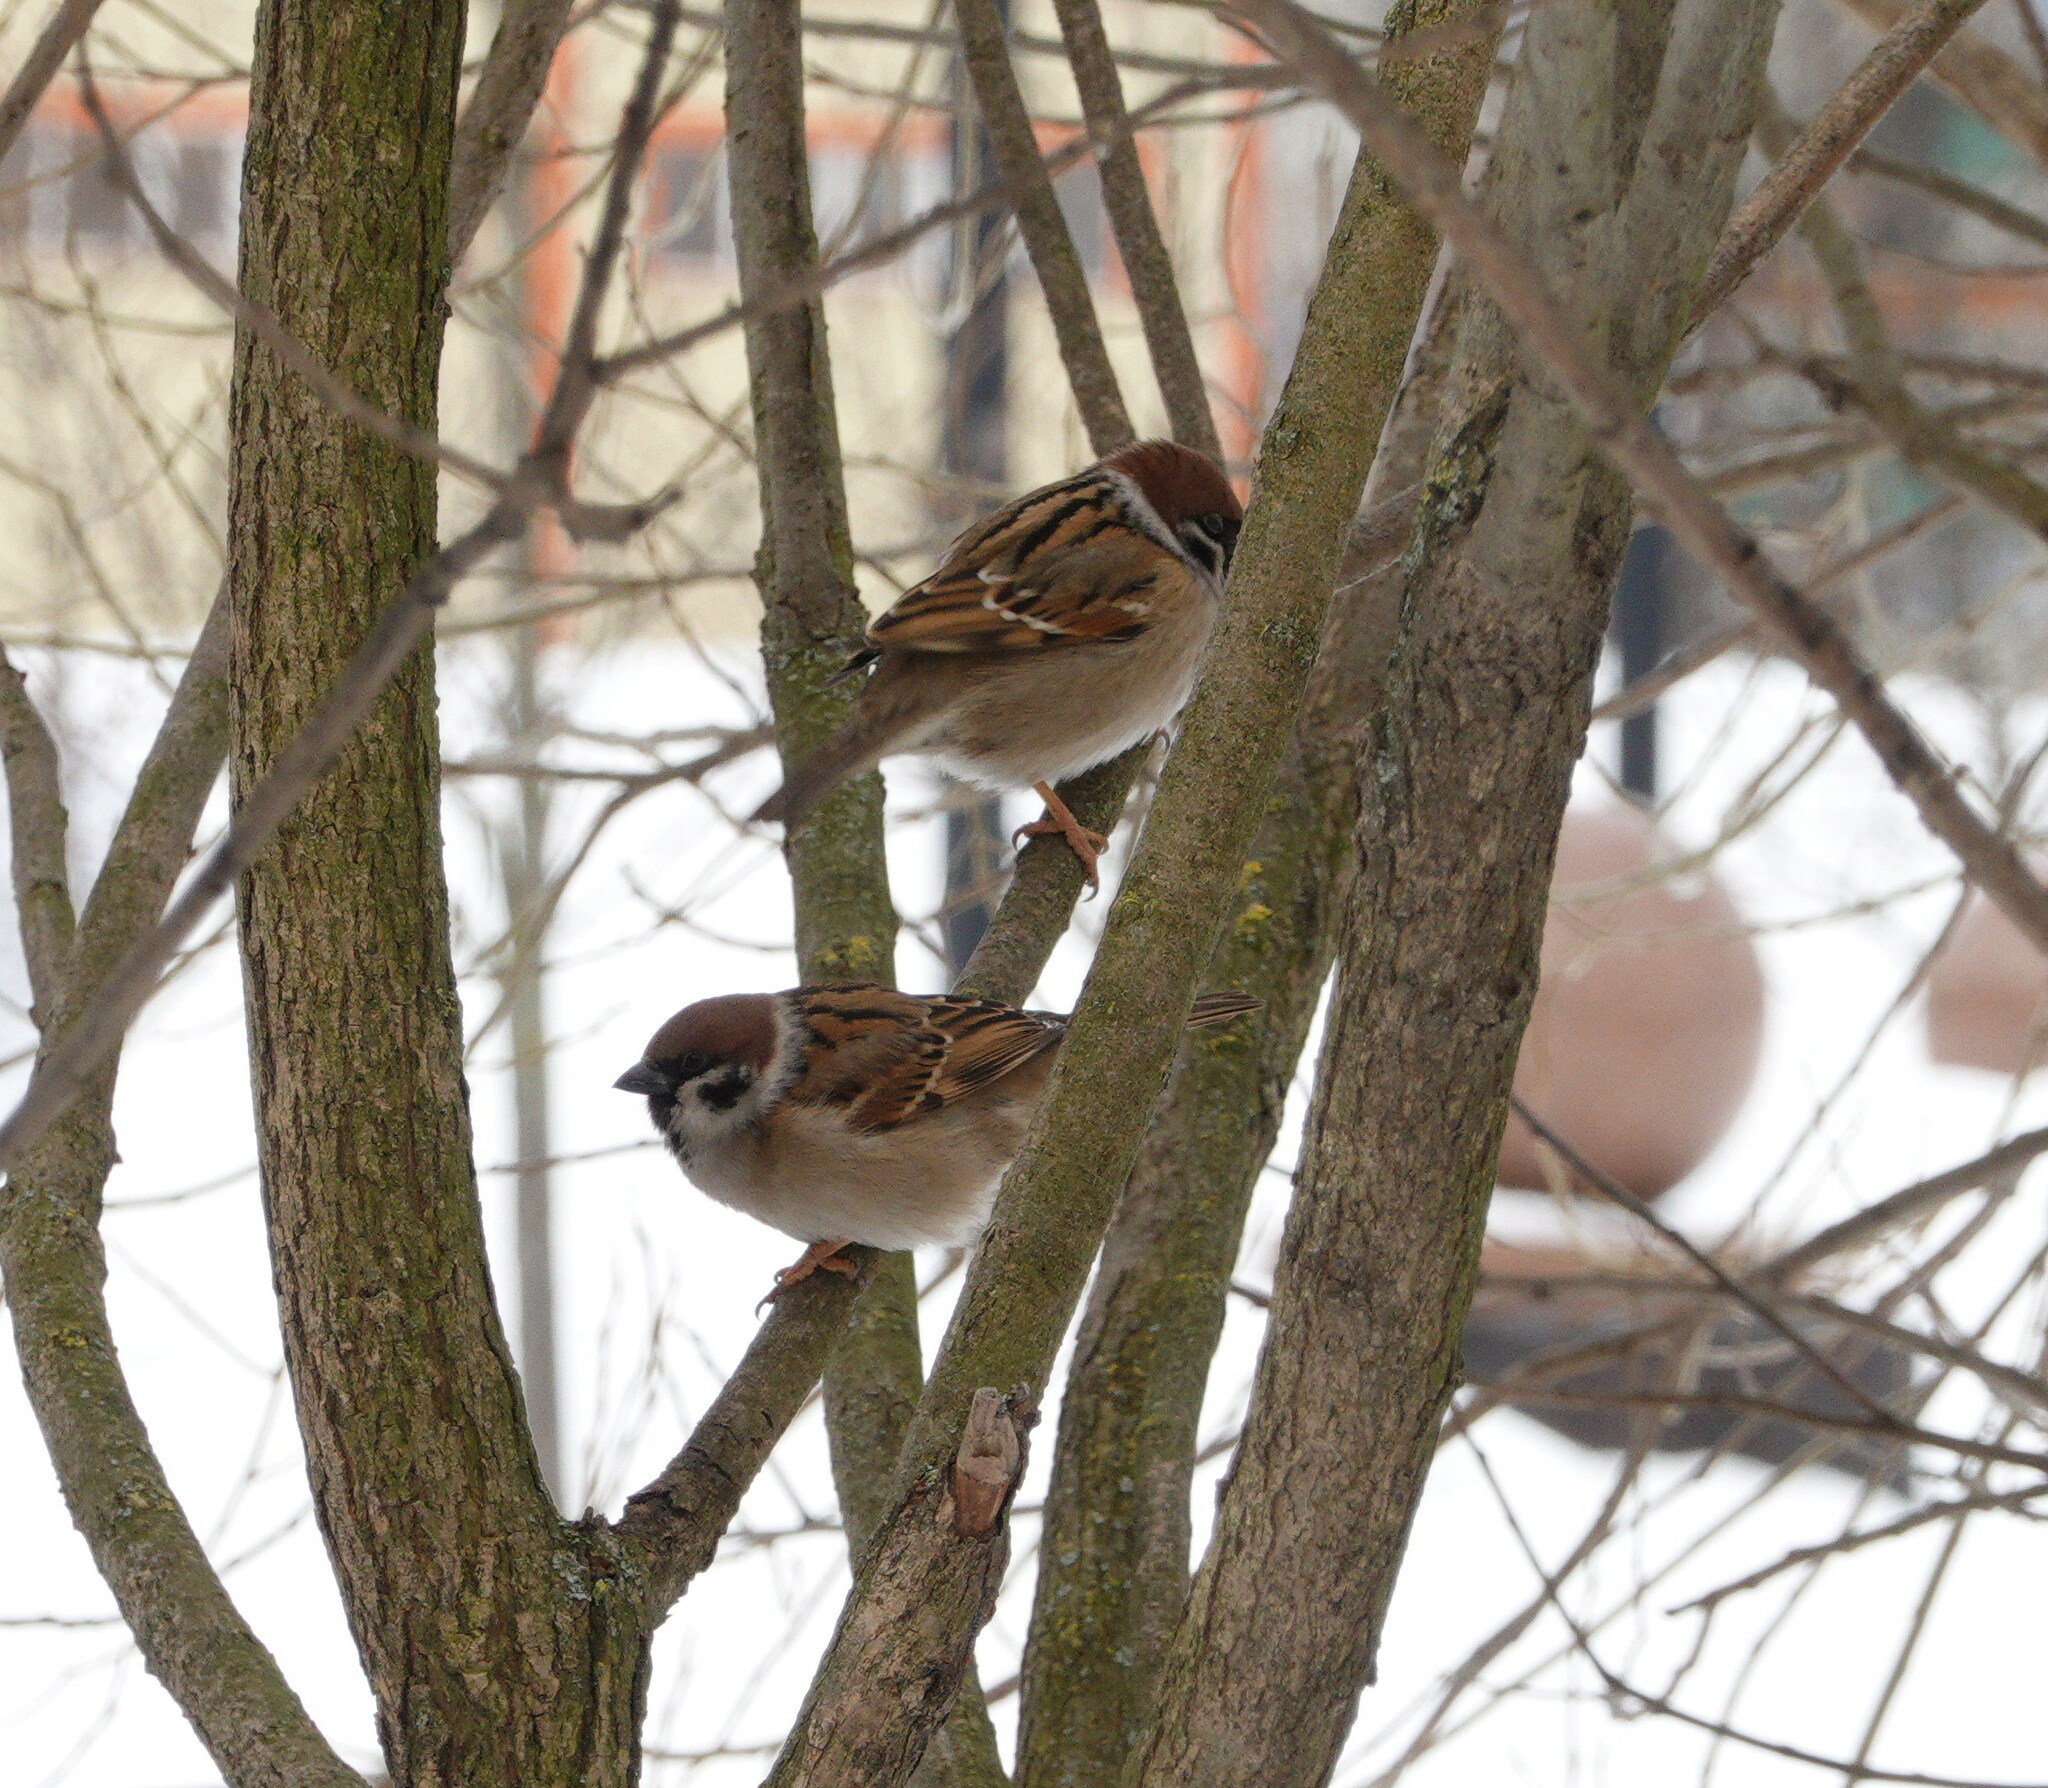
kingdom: Animalia
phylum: Chordata
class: Aves
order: Passeriformes
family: Passeridae
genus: Passer
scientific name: Passer montanus
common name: Eurasian tree sparrow
